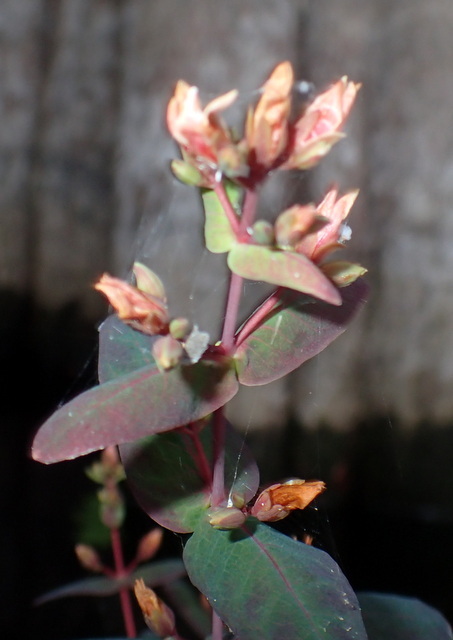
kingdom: Plantae
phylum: Tracheophyta
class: Magnoliopsida
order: Malpighiales
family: Hypericaceae
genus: Triadenum
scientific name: Triadenum virginicum
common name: Marsh st. john's-wort
